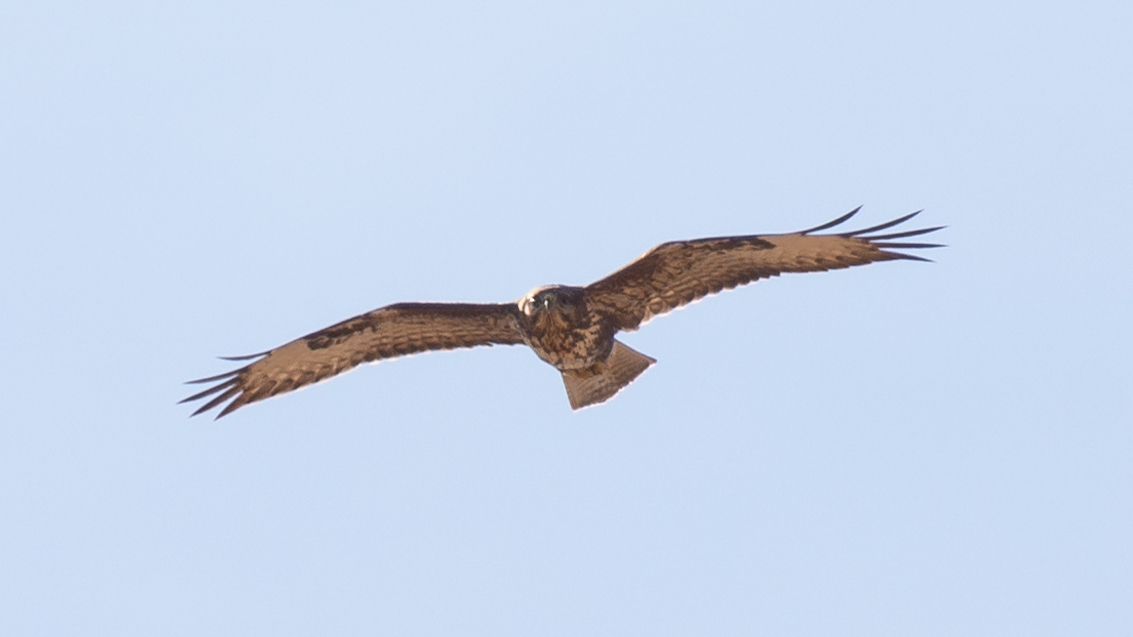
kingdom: Animalia
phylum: Chordata
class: Aves
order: Accipitriformes
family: Accipitridae
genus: Buteo
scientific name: Buteo buteo
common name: Common buzzard
